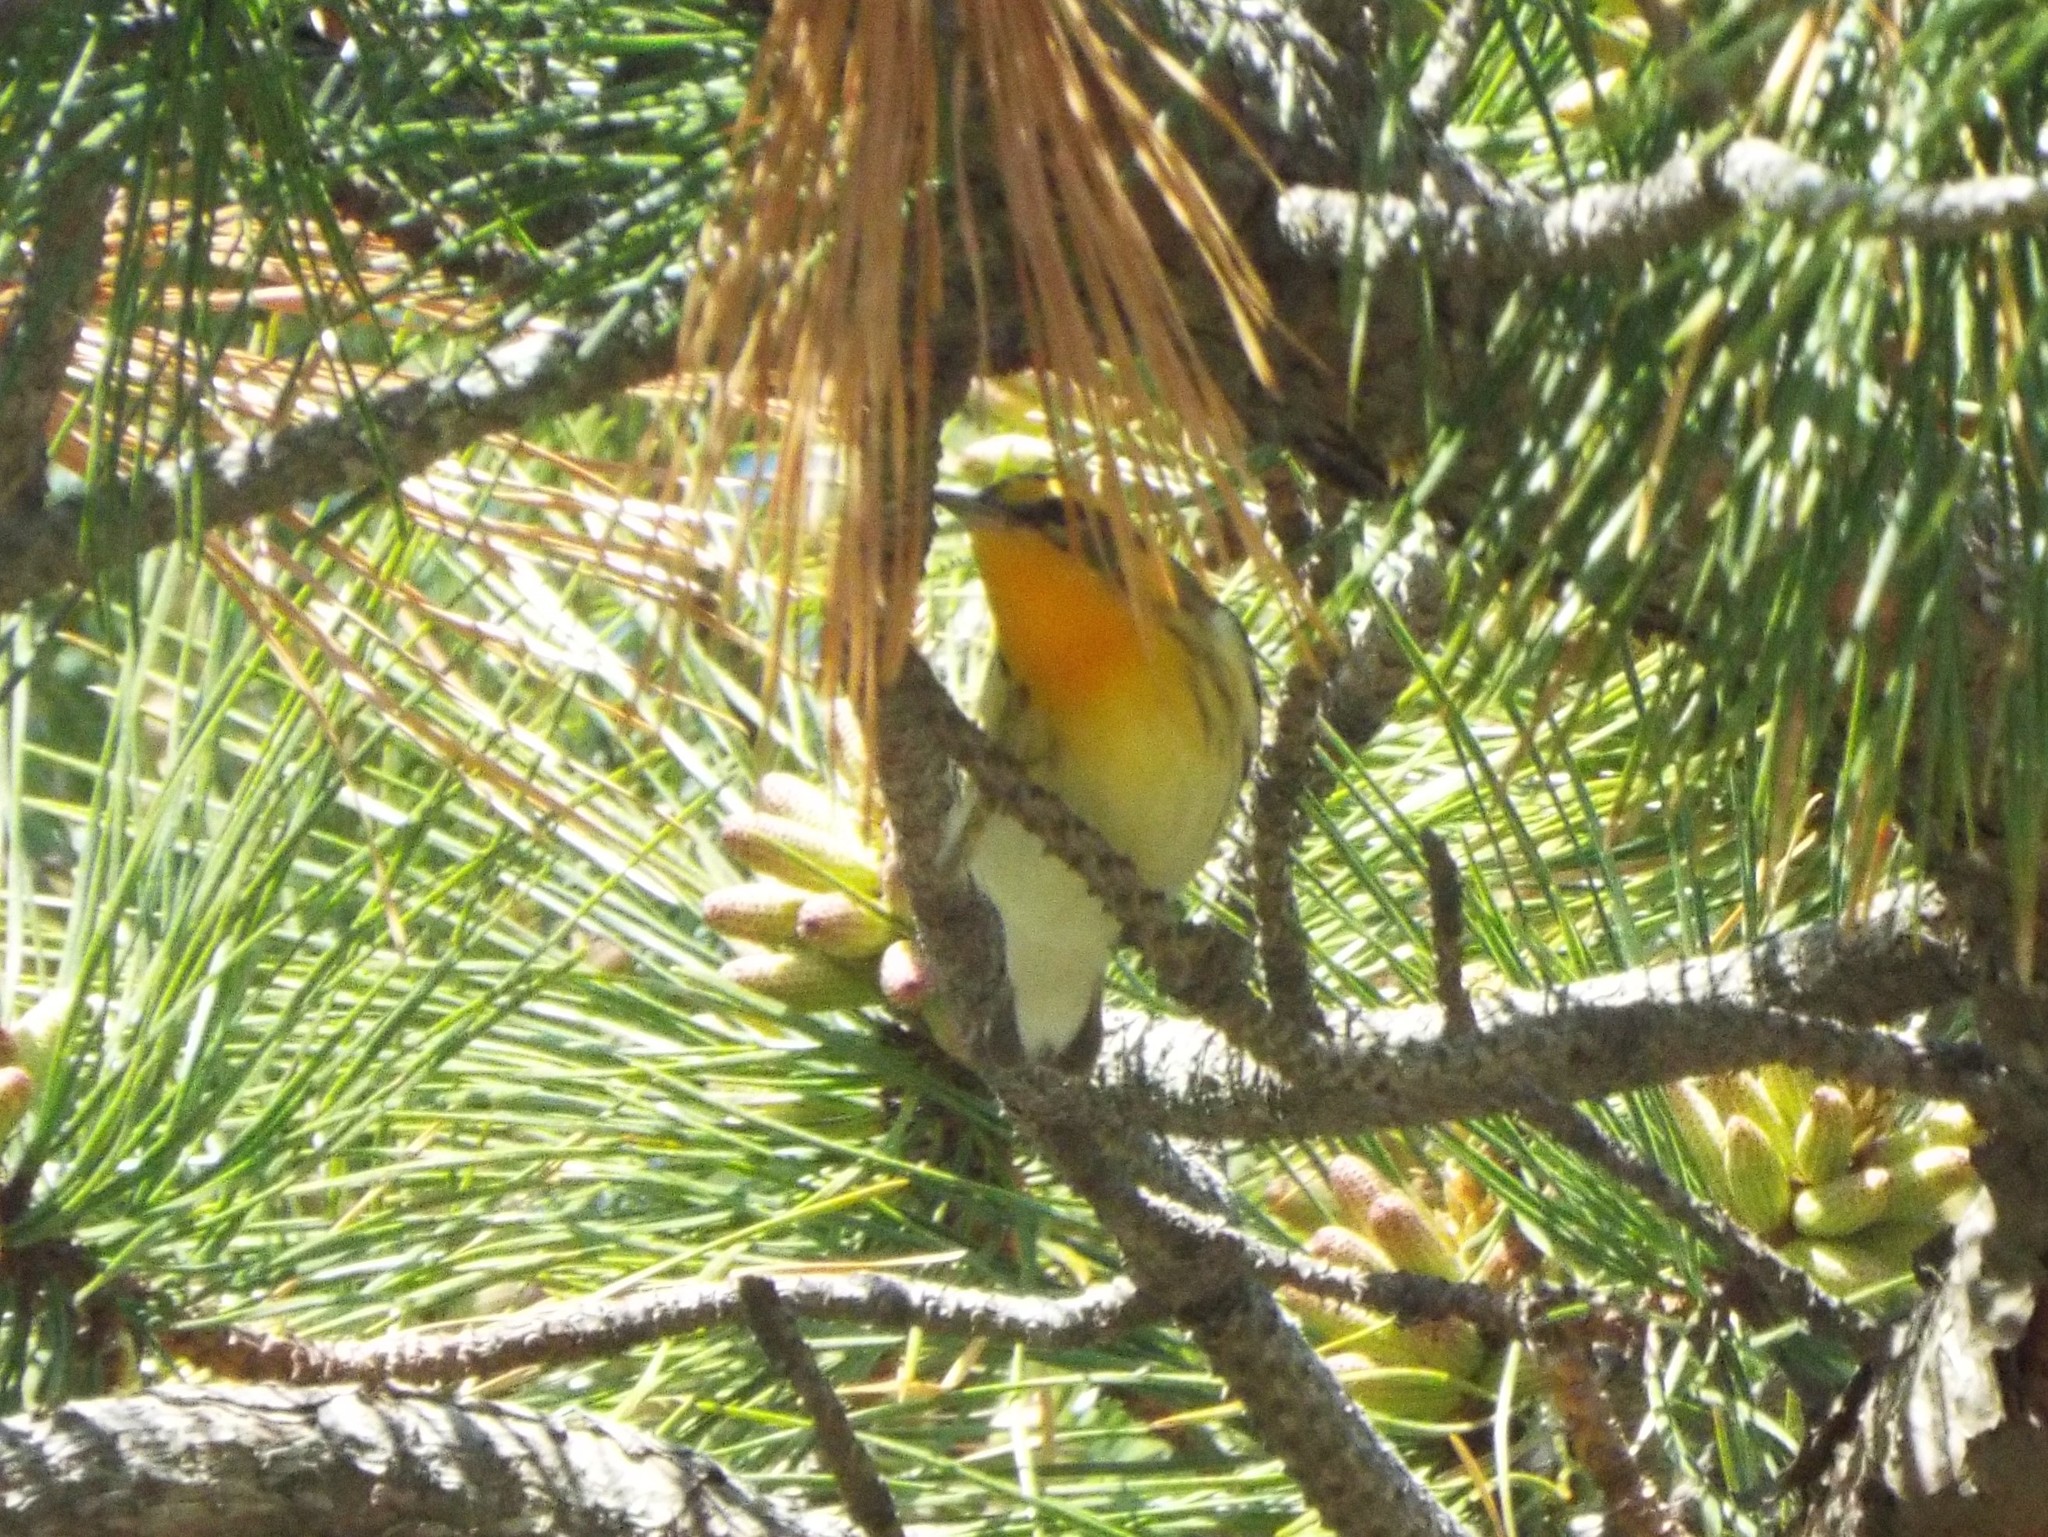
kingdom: Animalia
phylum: Chordata
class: Aves
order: Passeriformes
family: Parulidae
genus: Setophaga
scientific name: Setophaga fusca
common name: Blackburnian warbler
